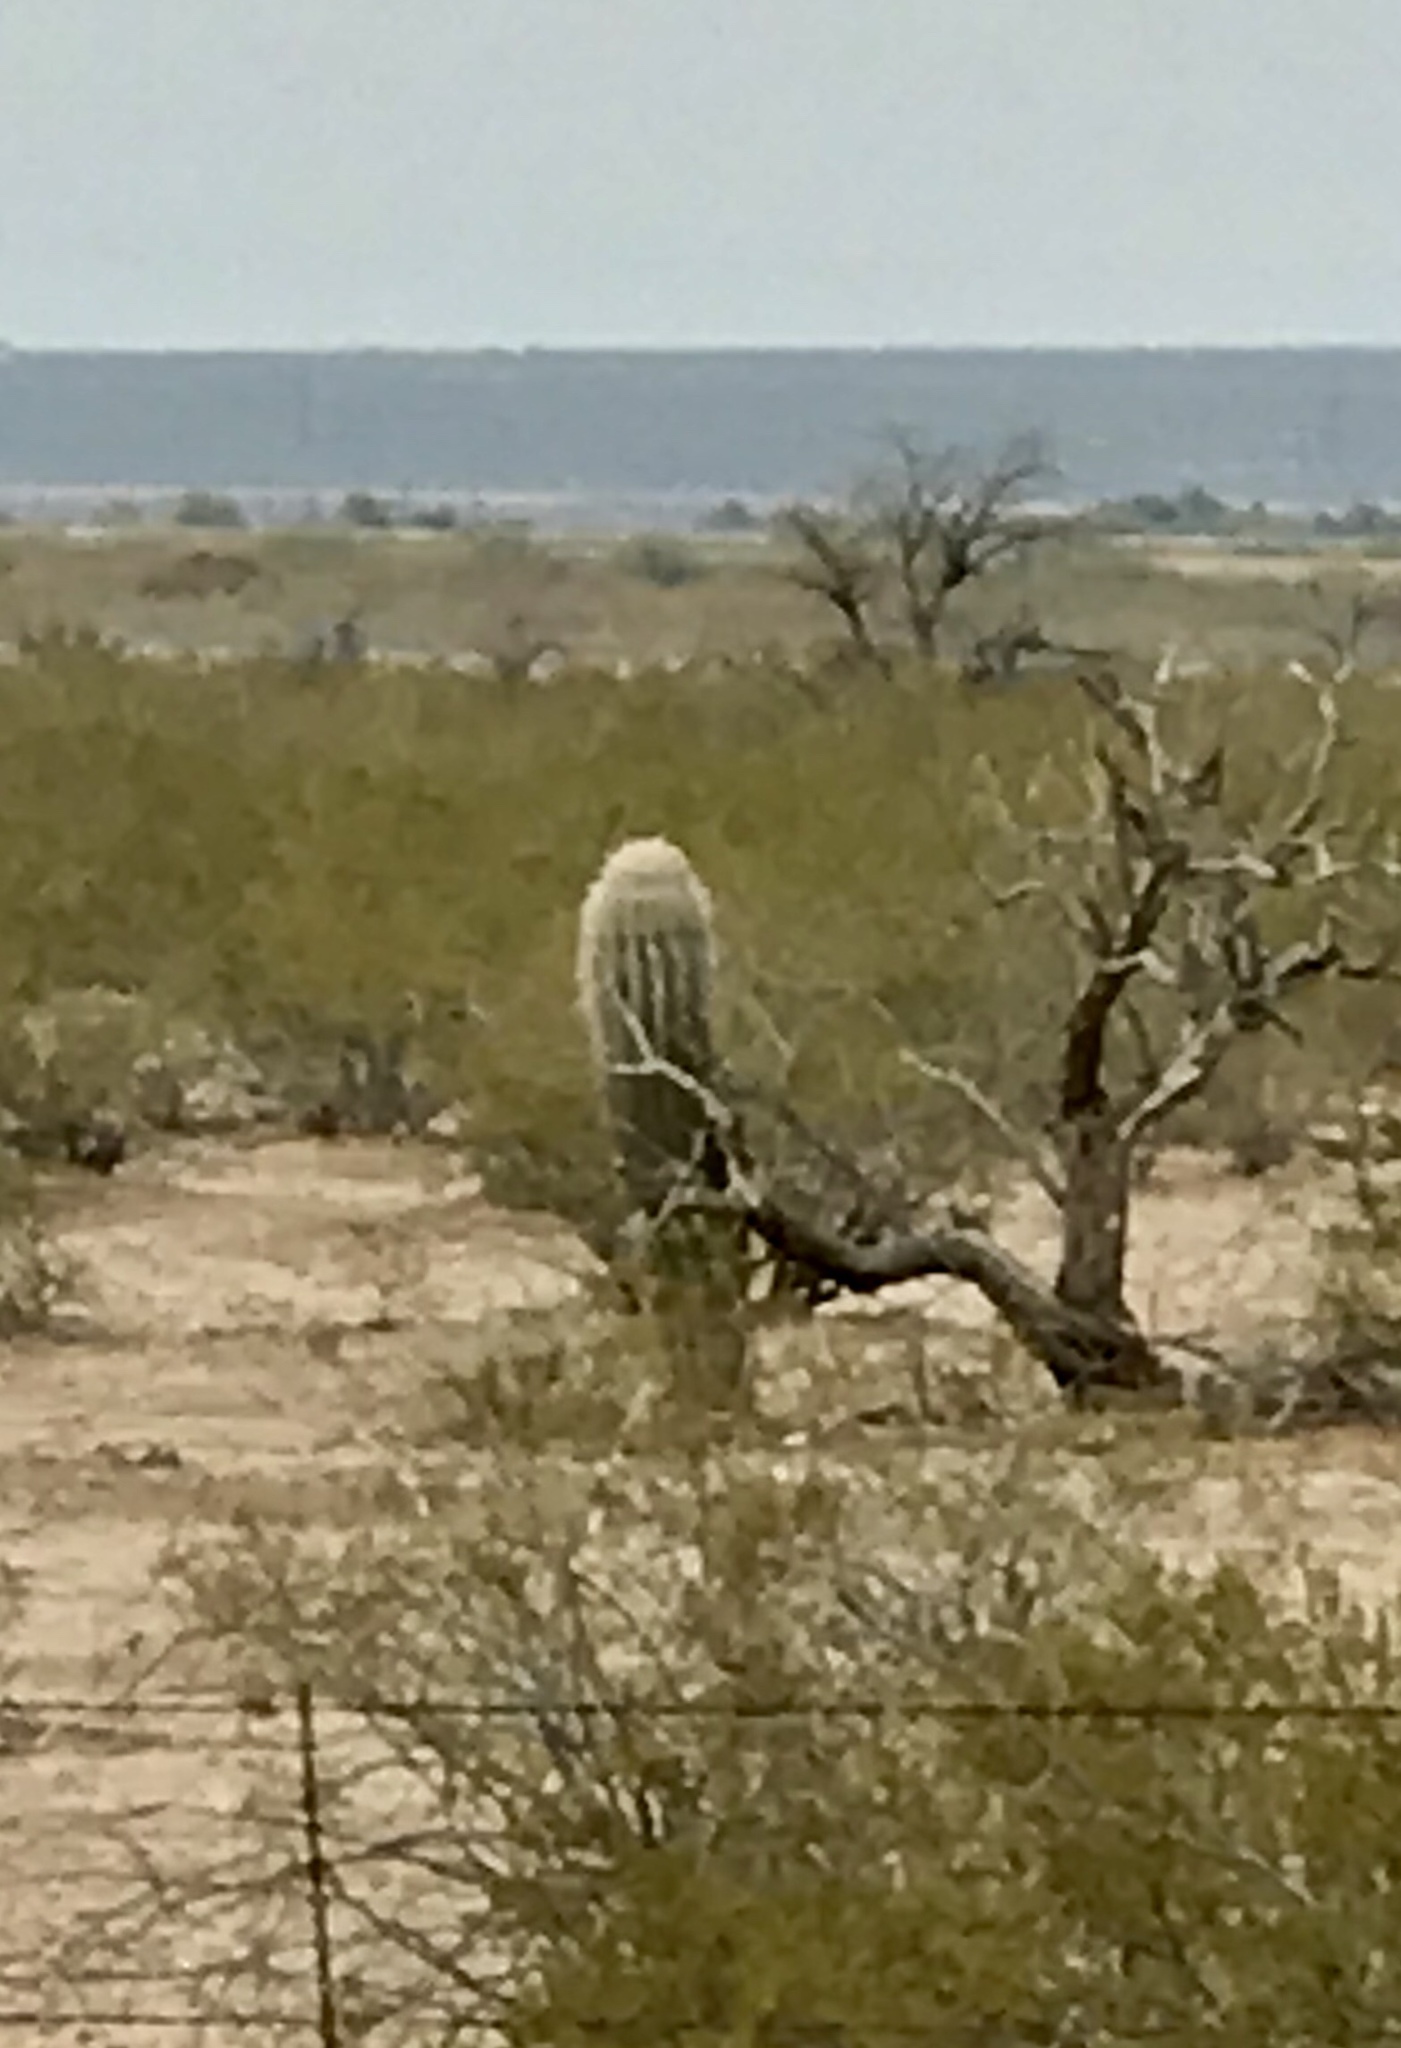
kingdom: Plantae
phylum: Tracheophyta
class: Magnoliopsida
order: Caryophyllales
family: Cactaceae
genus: Carnegiea
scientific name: Carnegiea gigantea
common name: Saguaro
